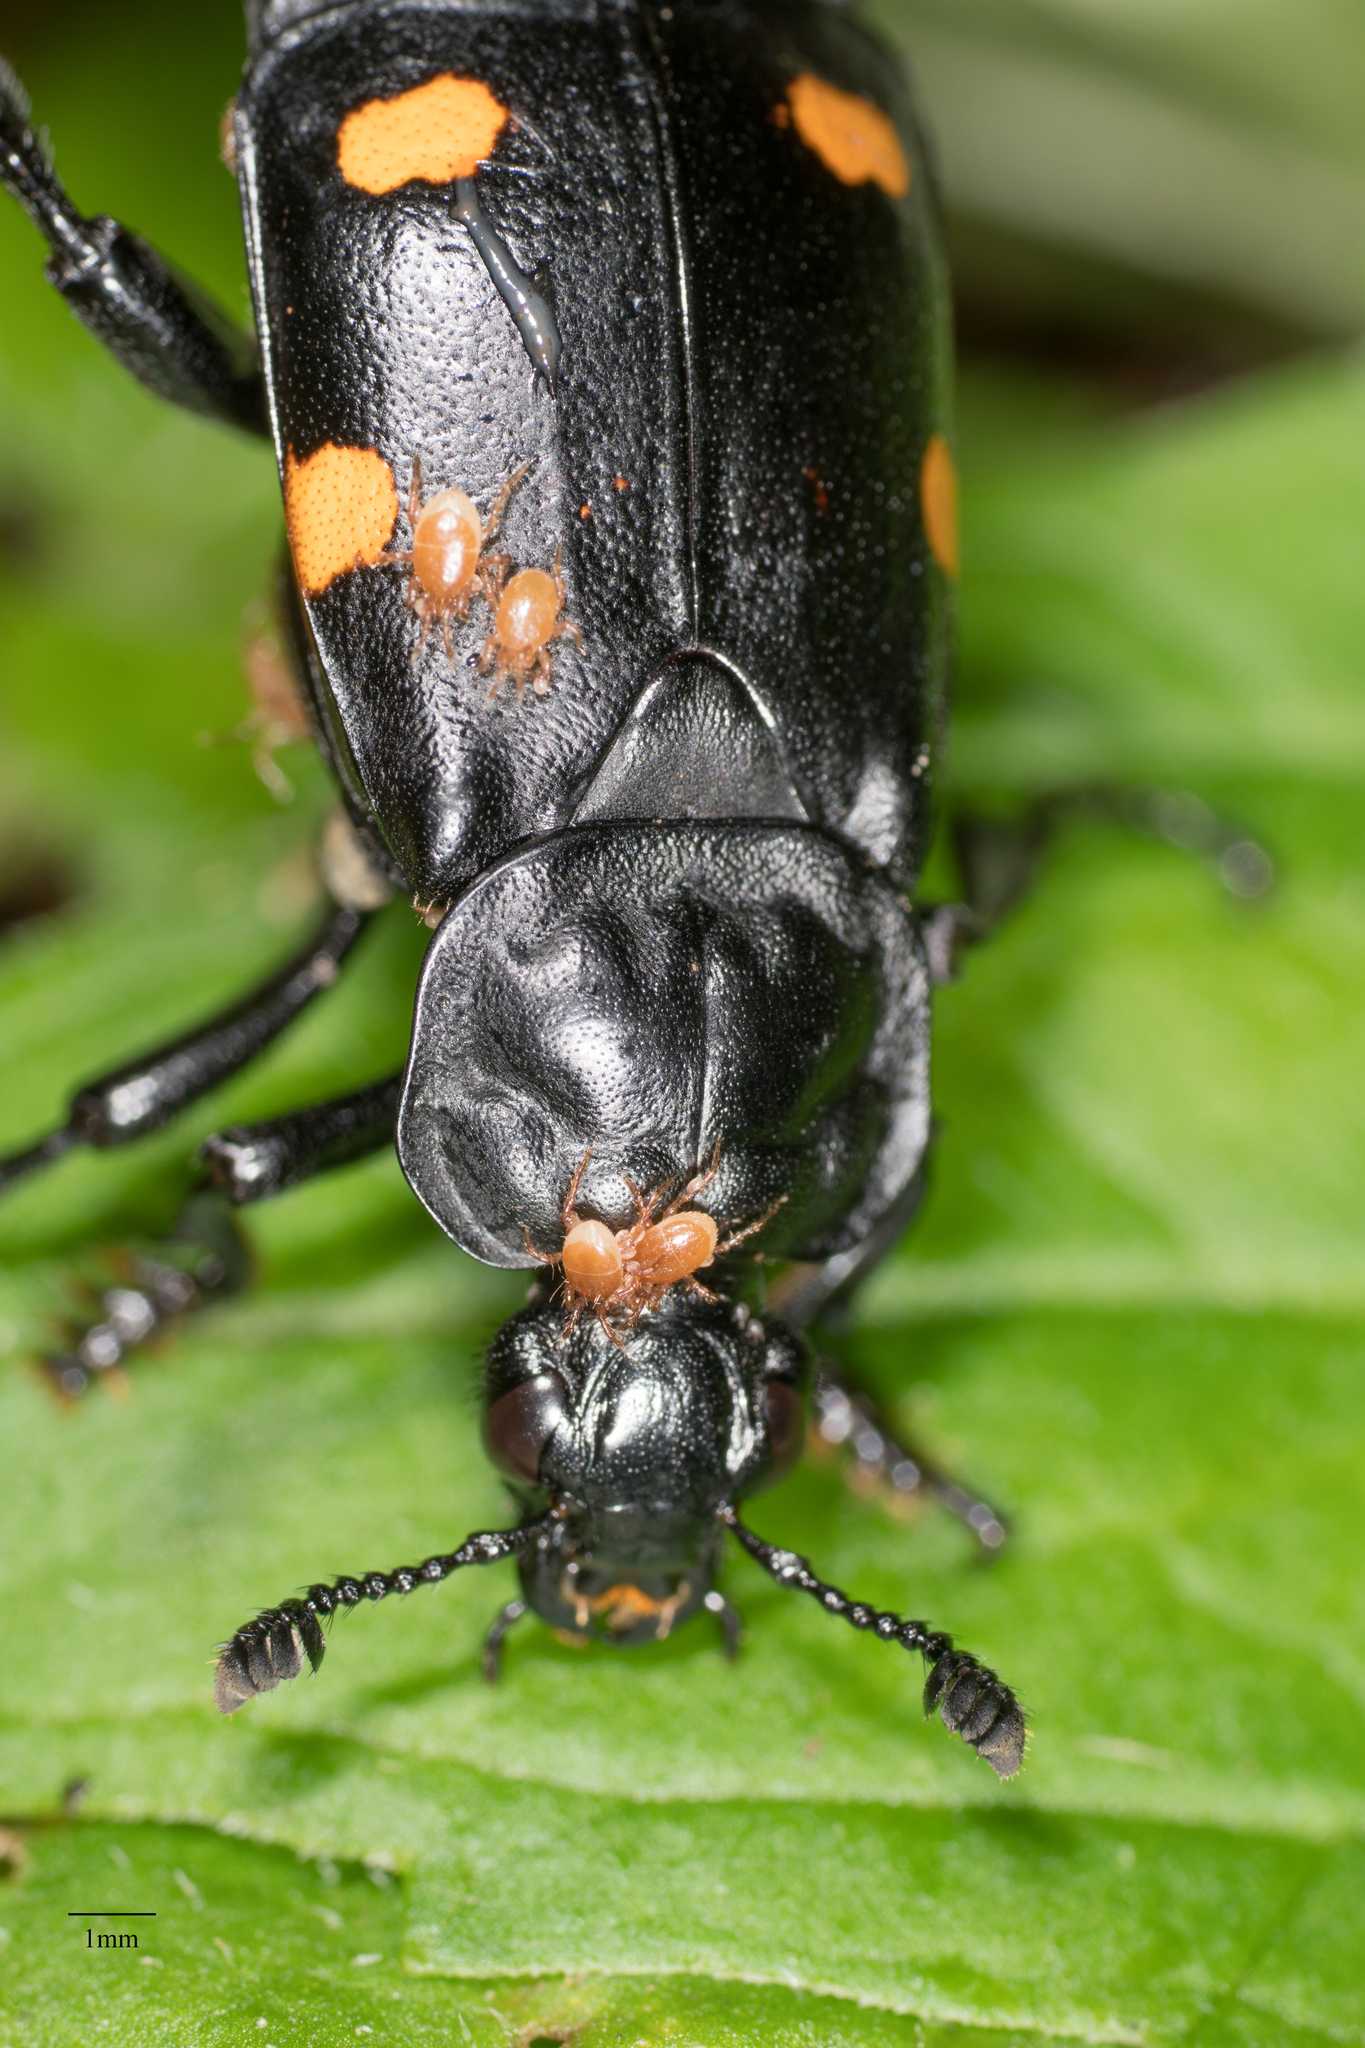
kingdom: Animalia
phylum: Arthropoda
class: Insecta
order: Coleoptera
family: Staphylinidae
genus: Nicrophorus
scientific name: Nicrophorus defodiens
